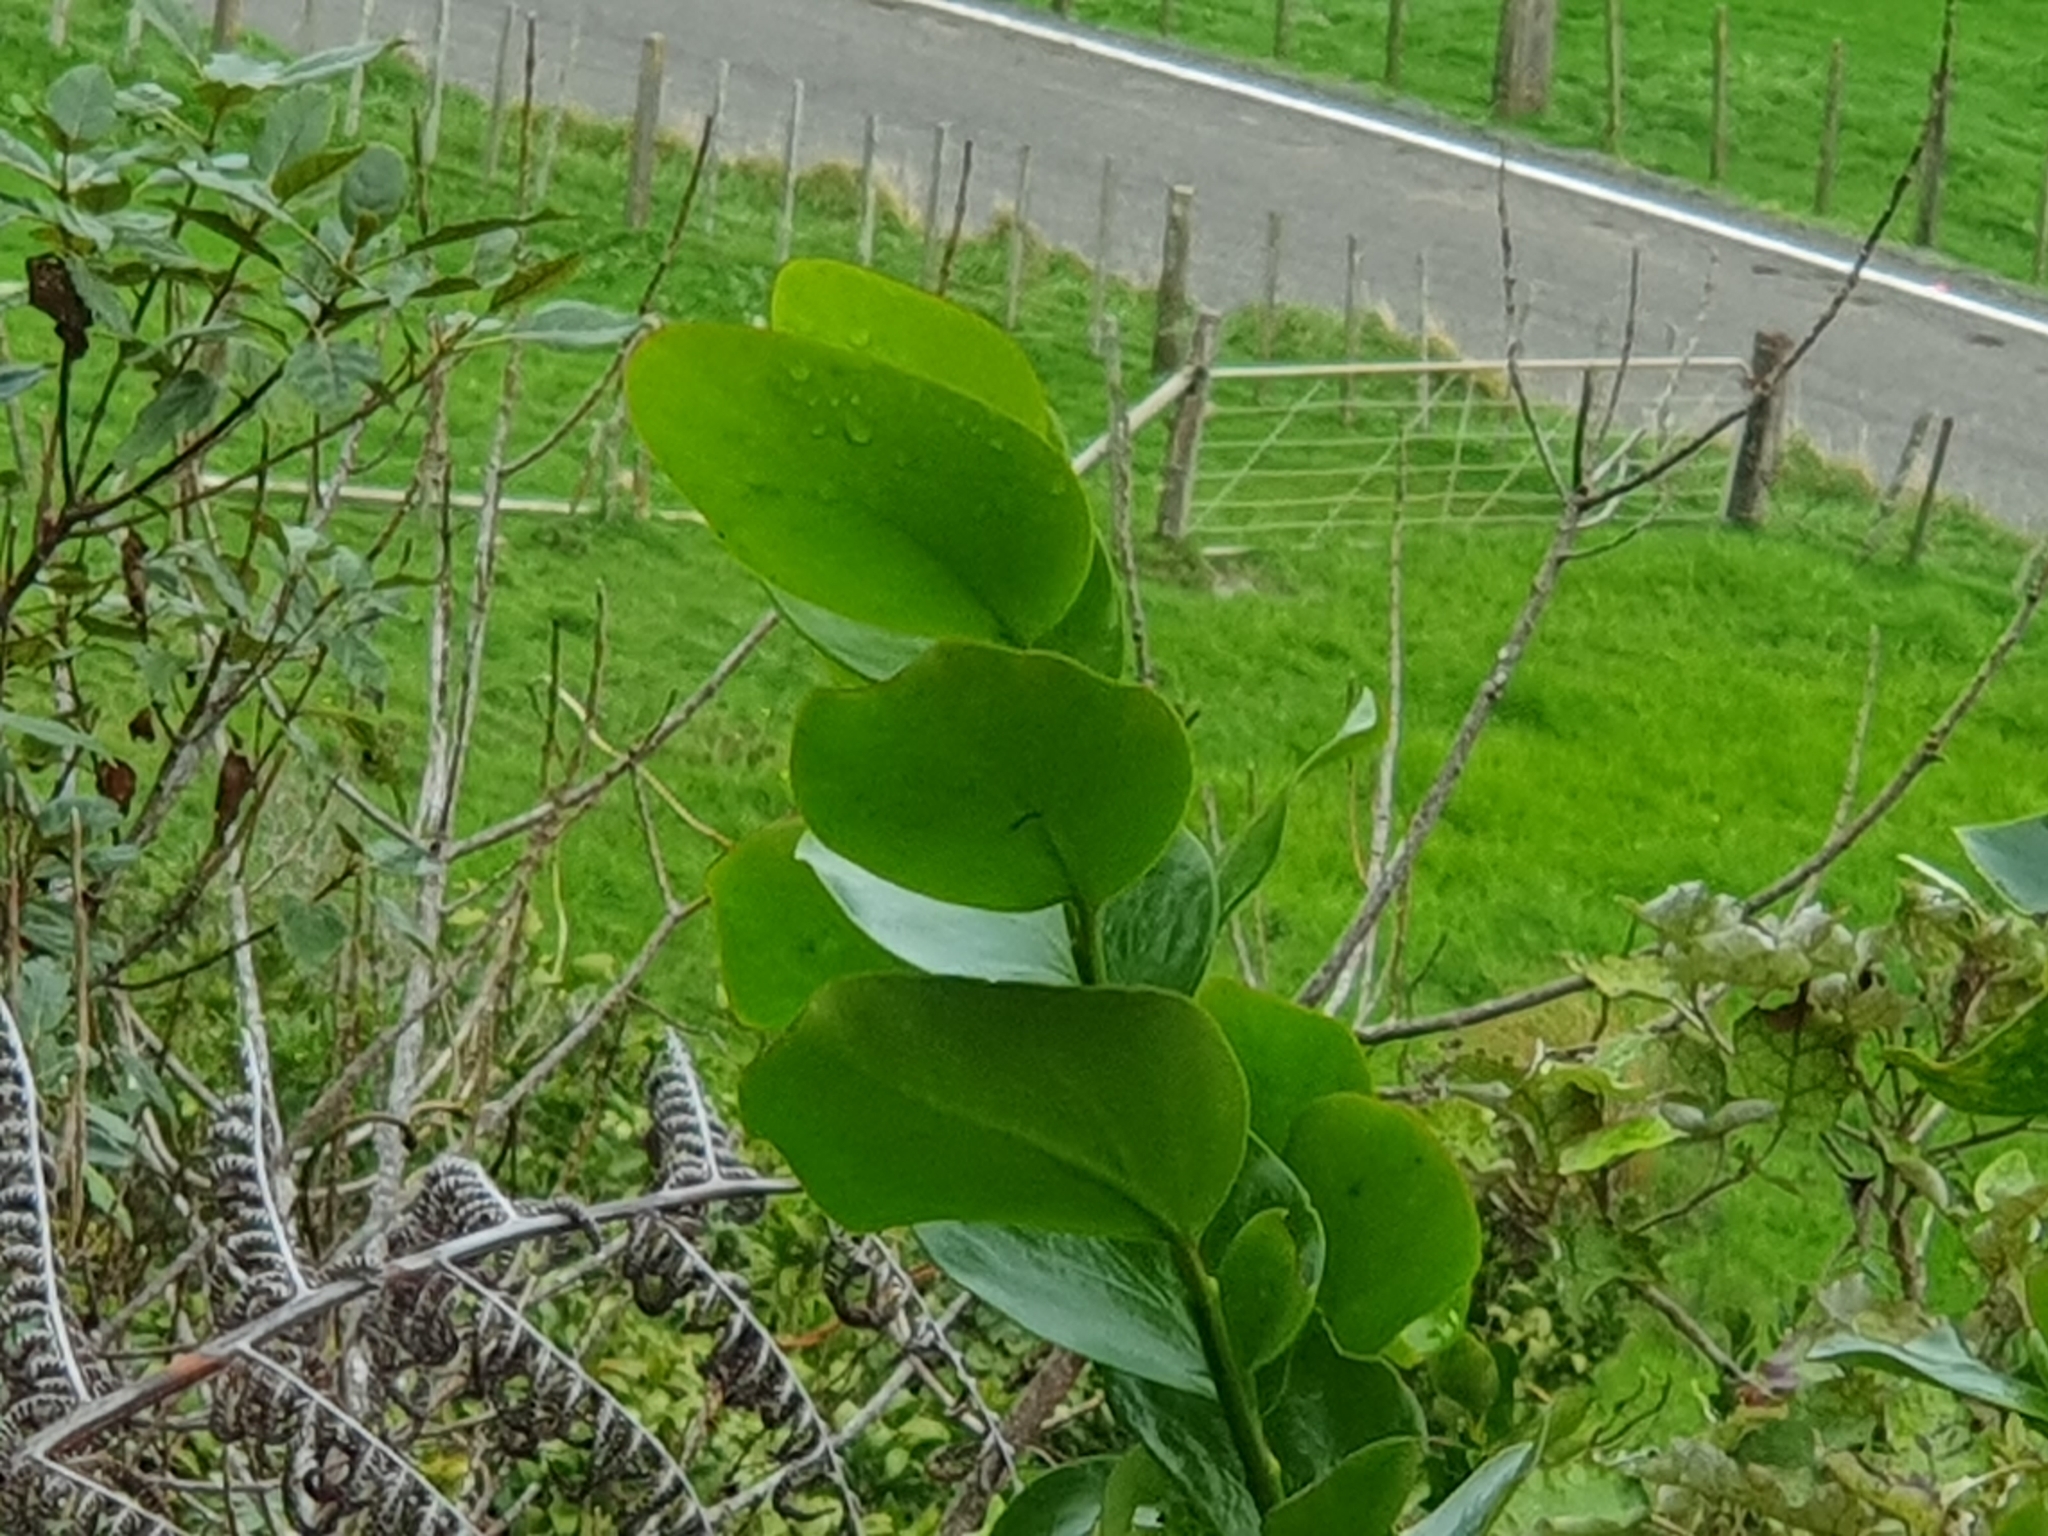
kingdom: Plantae
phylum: Tracheophyta
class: Magnoliopsida
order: Apiales
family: Griseliniaceae
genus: Griselinia
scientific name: Griselinia lucida
